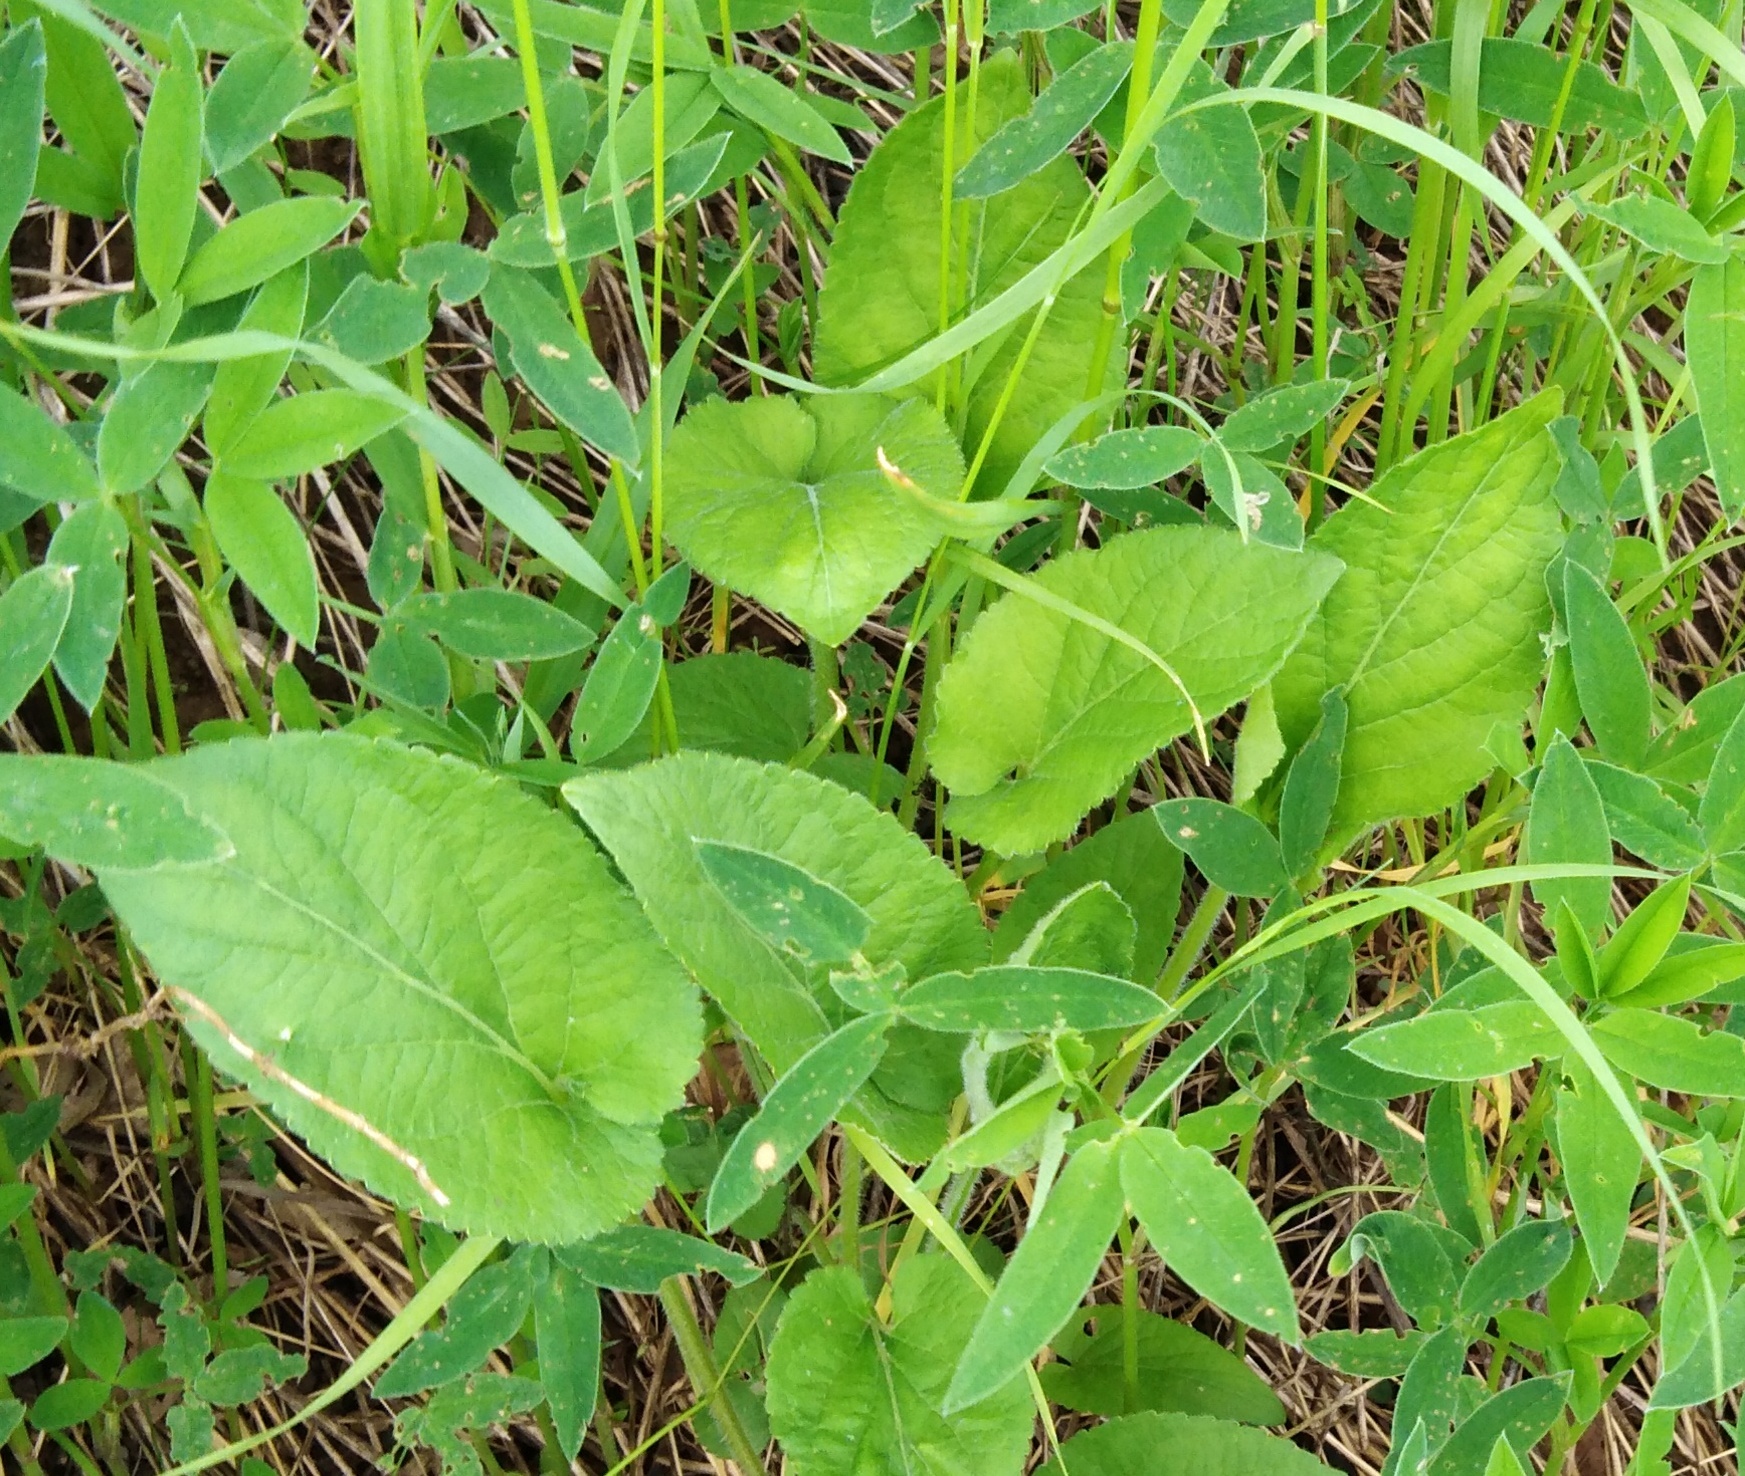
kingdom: Plantae
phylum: Tracheophyta
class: Magnoliopsida
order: Malpighiales
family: Violaceae
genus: Viola
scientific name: Viola hirta
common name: Hairy violet
